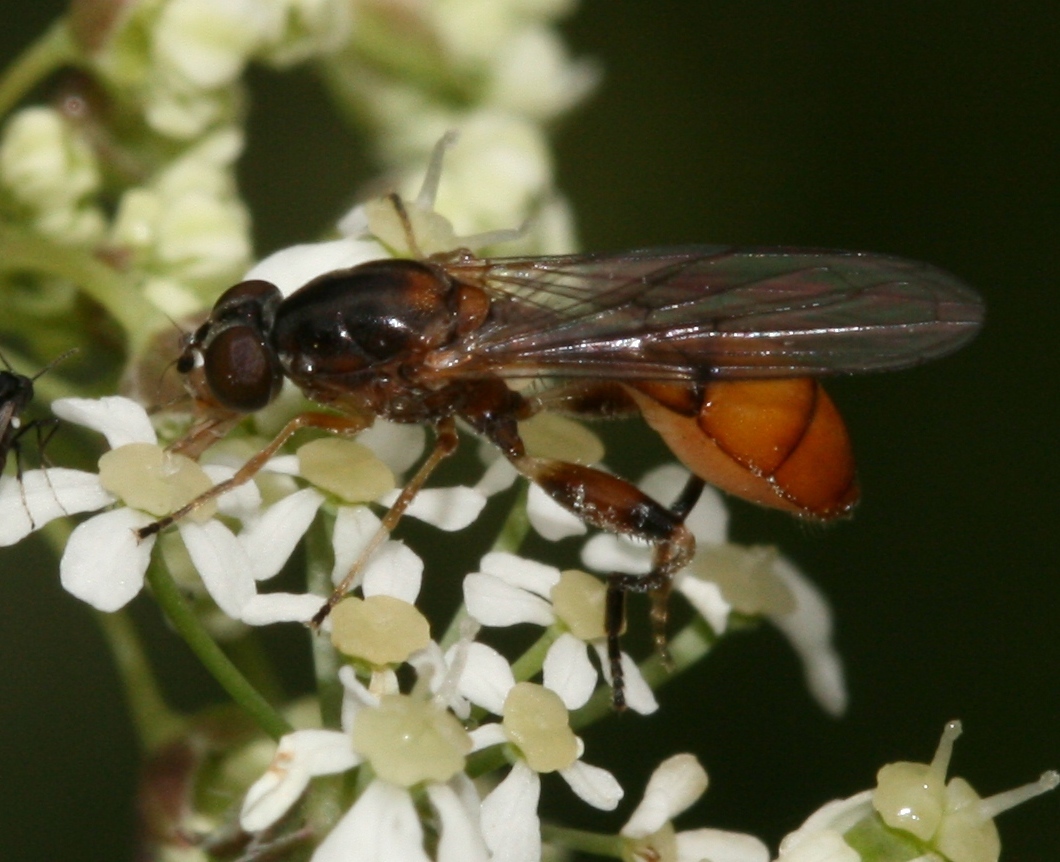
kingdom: Animalia
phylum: Arthropoda
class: Insecta
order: Diptera
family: Syrphidae
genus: Sphegina
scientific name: Sphegina sibirica
